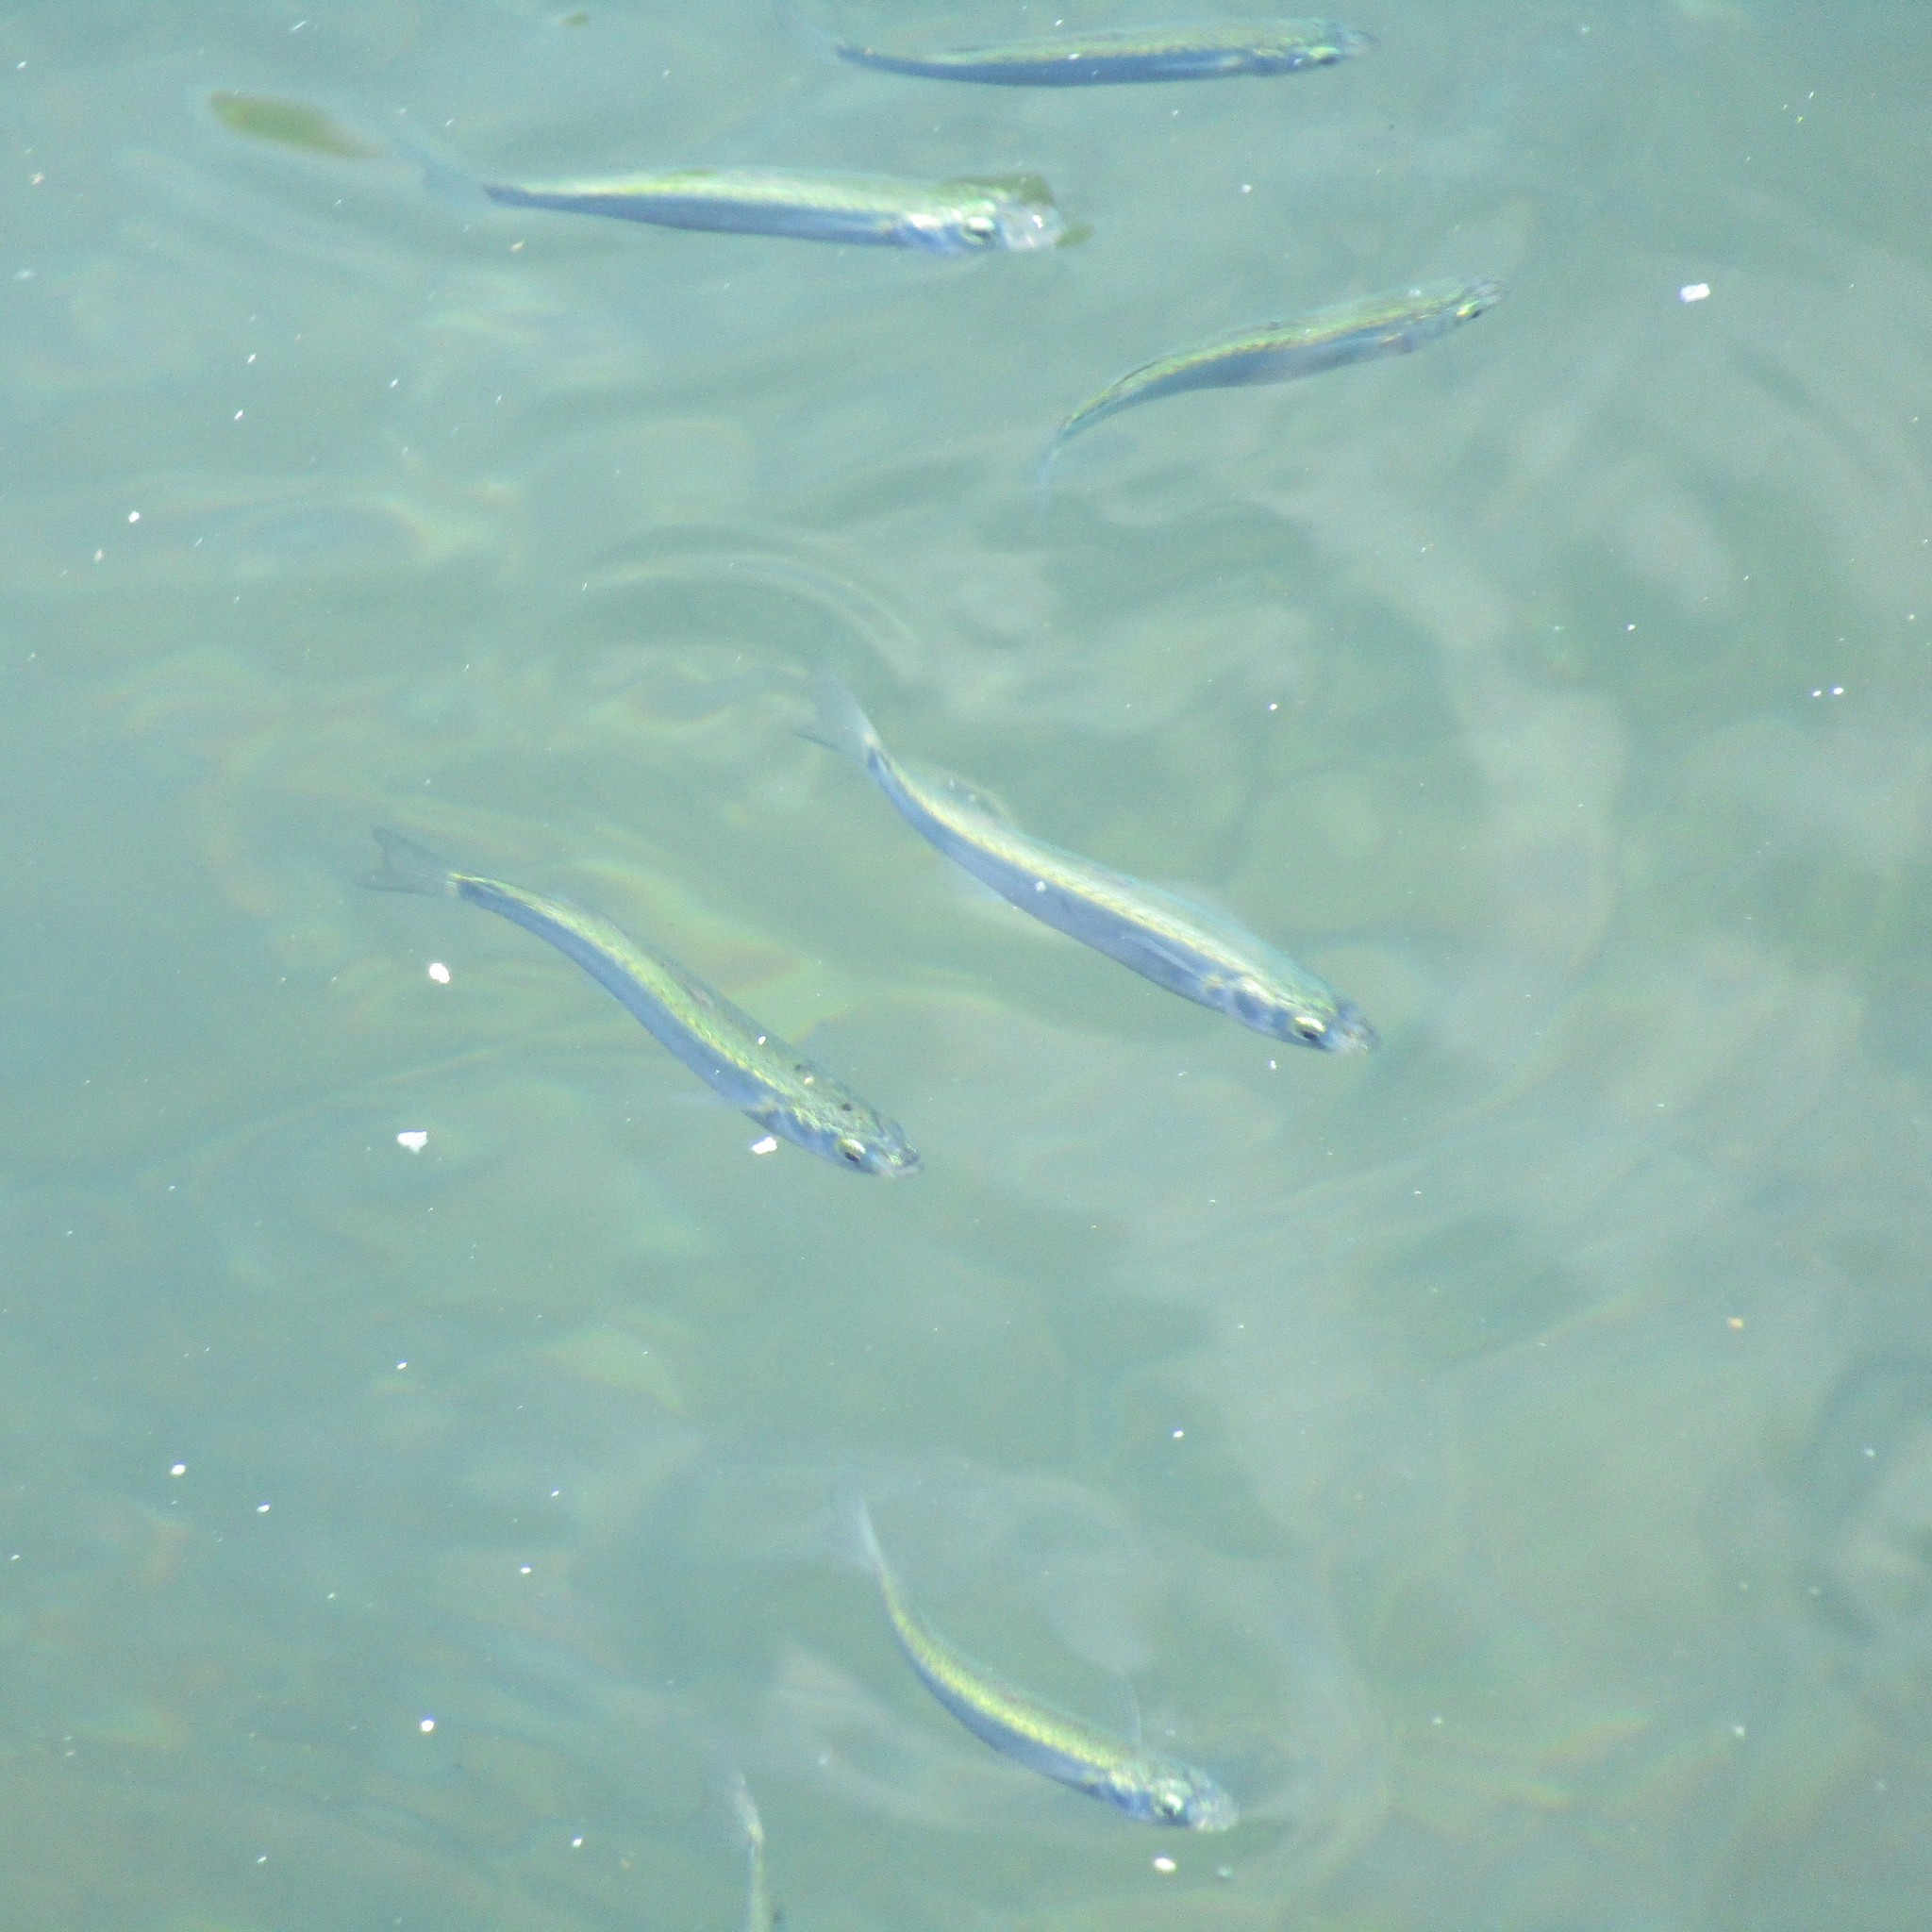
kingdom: Animalia
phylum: Chordata
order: Mugiliformes
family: Mugilidae
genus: Aldrichetta
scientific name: Aldrichetta forsteri
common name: Yellow-eye mullet
